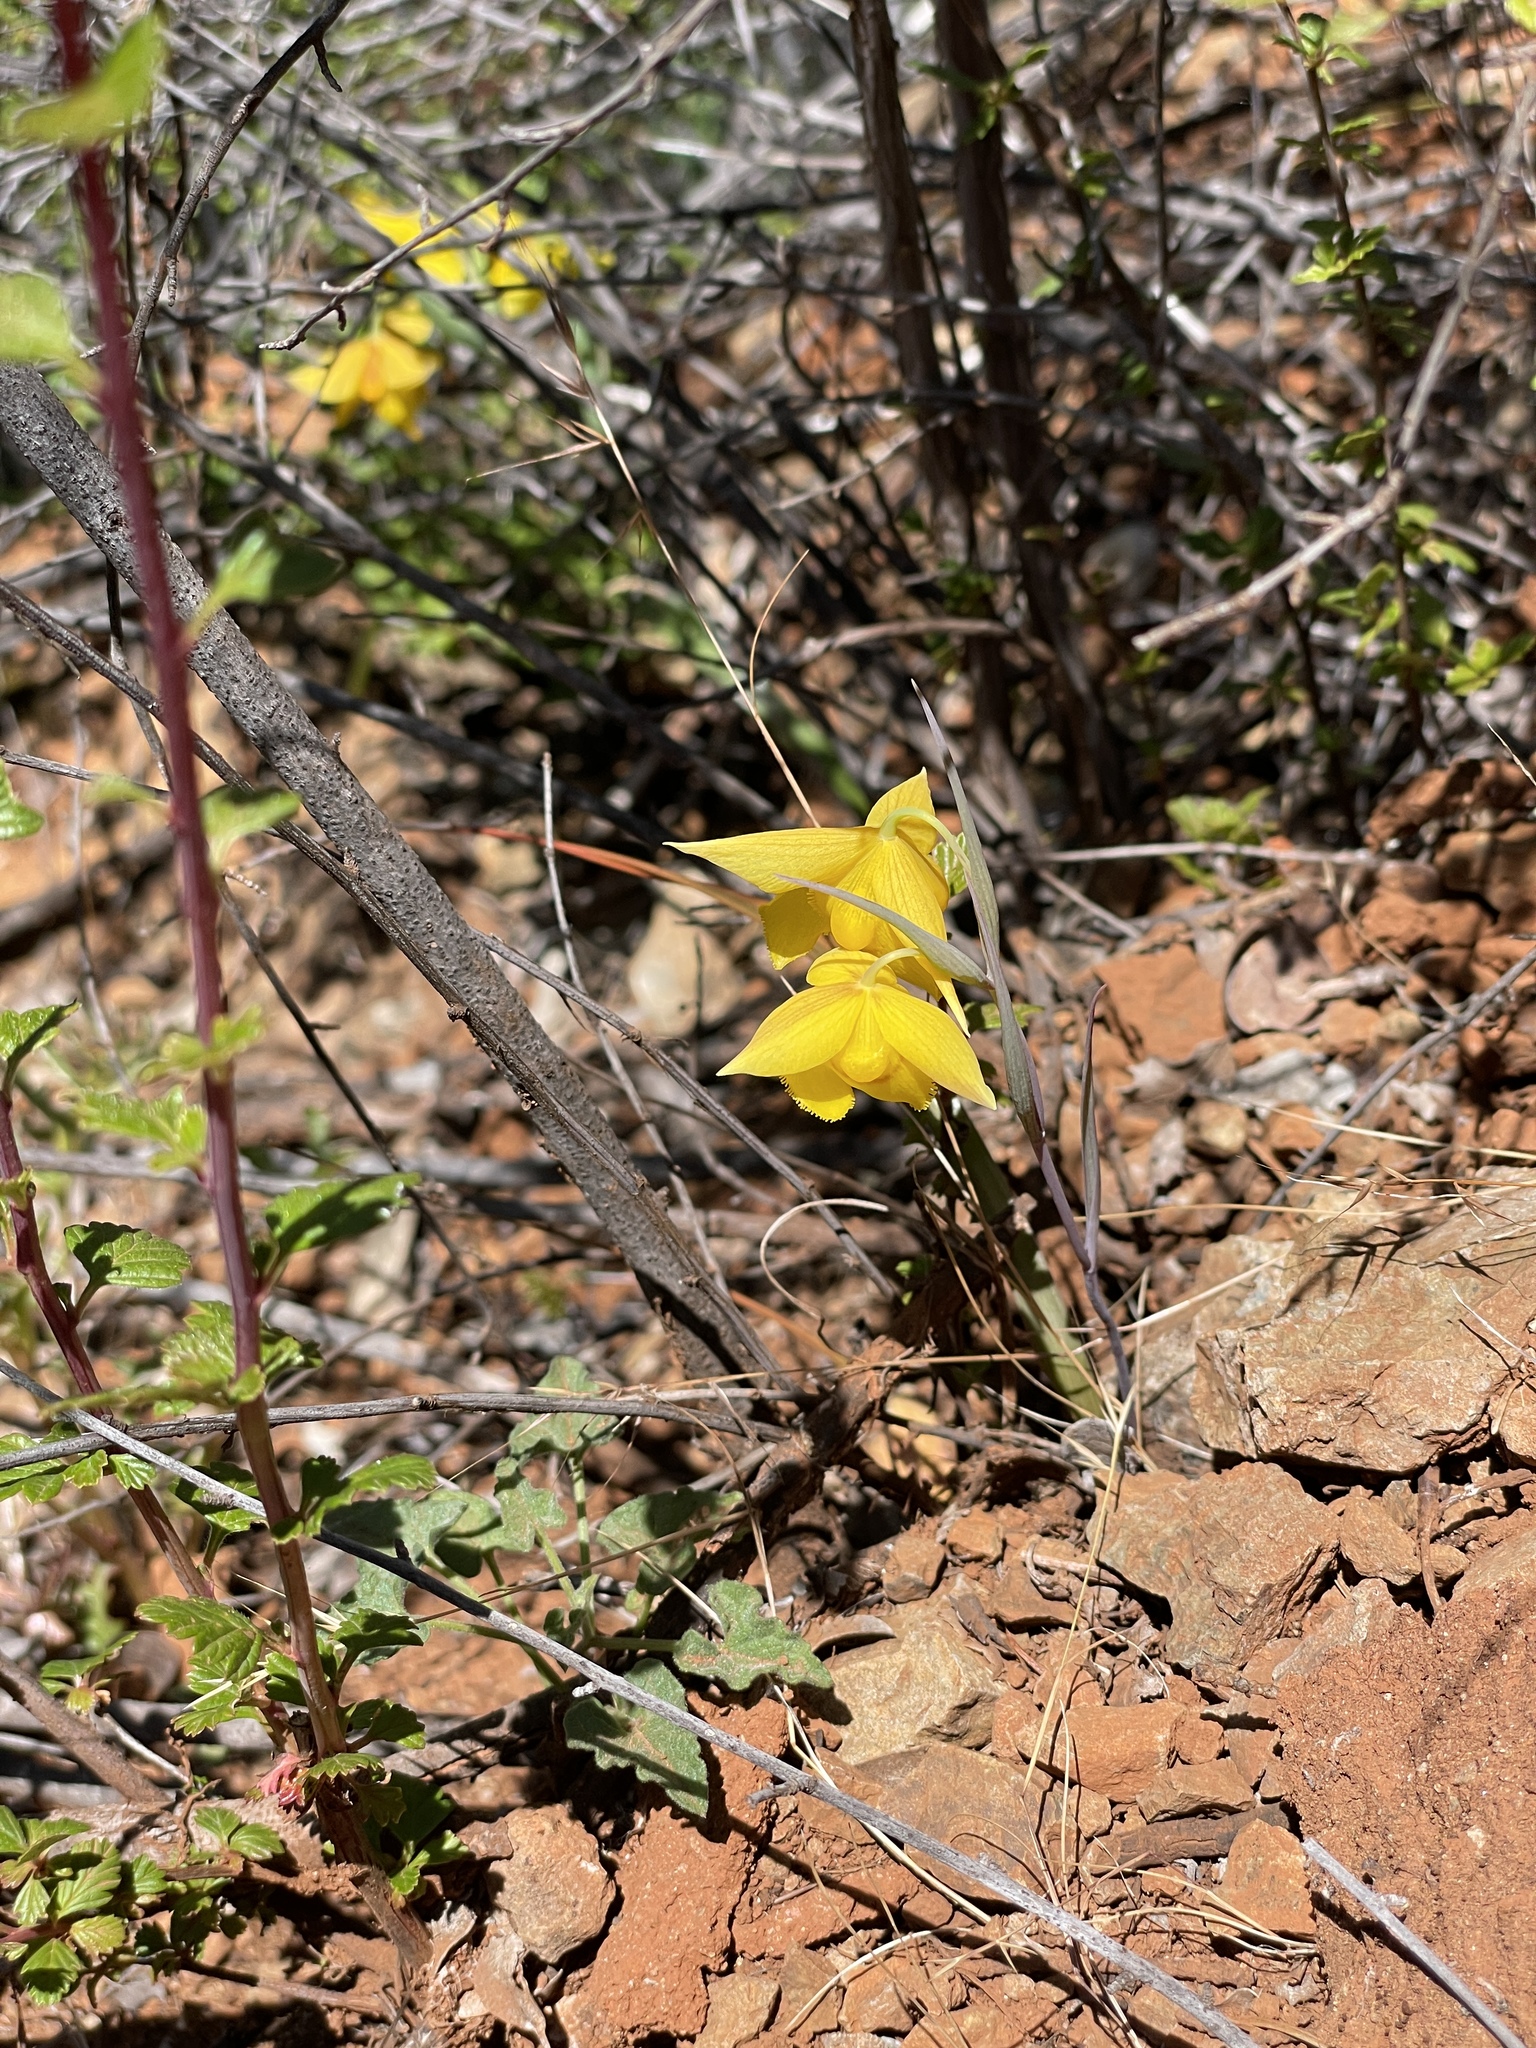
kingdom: Plantae
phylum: Tracheophyta
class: Liliopsida
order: Liliales
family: Liliaceae
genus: Calochortus
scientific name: Calochortus amabilis
